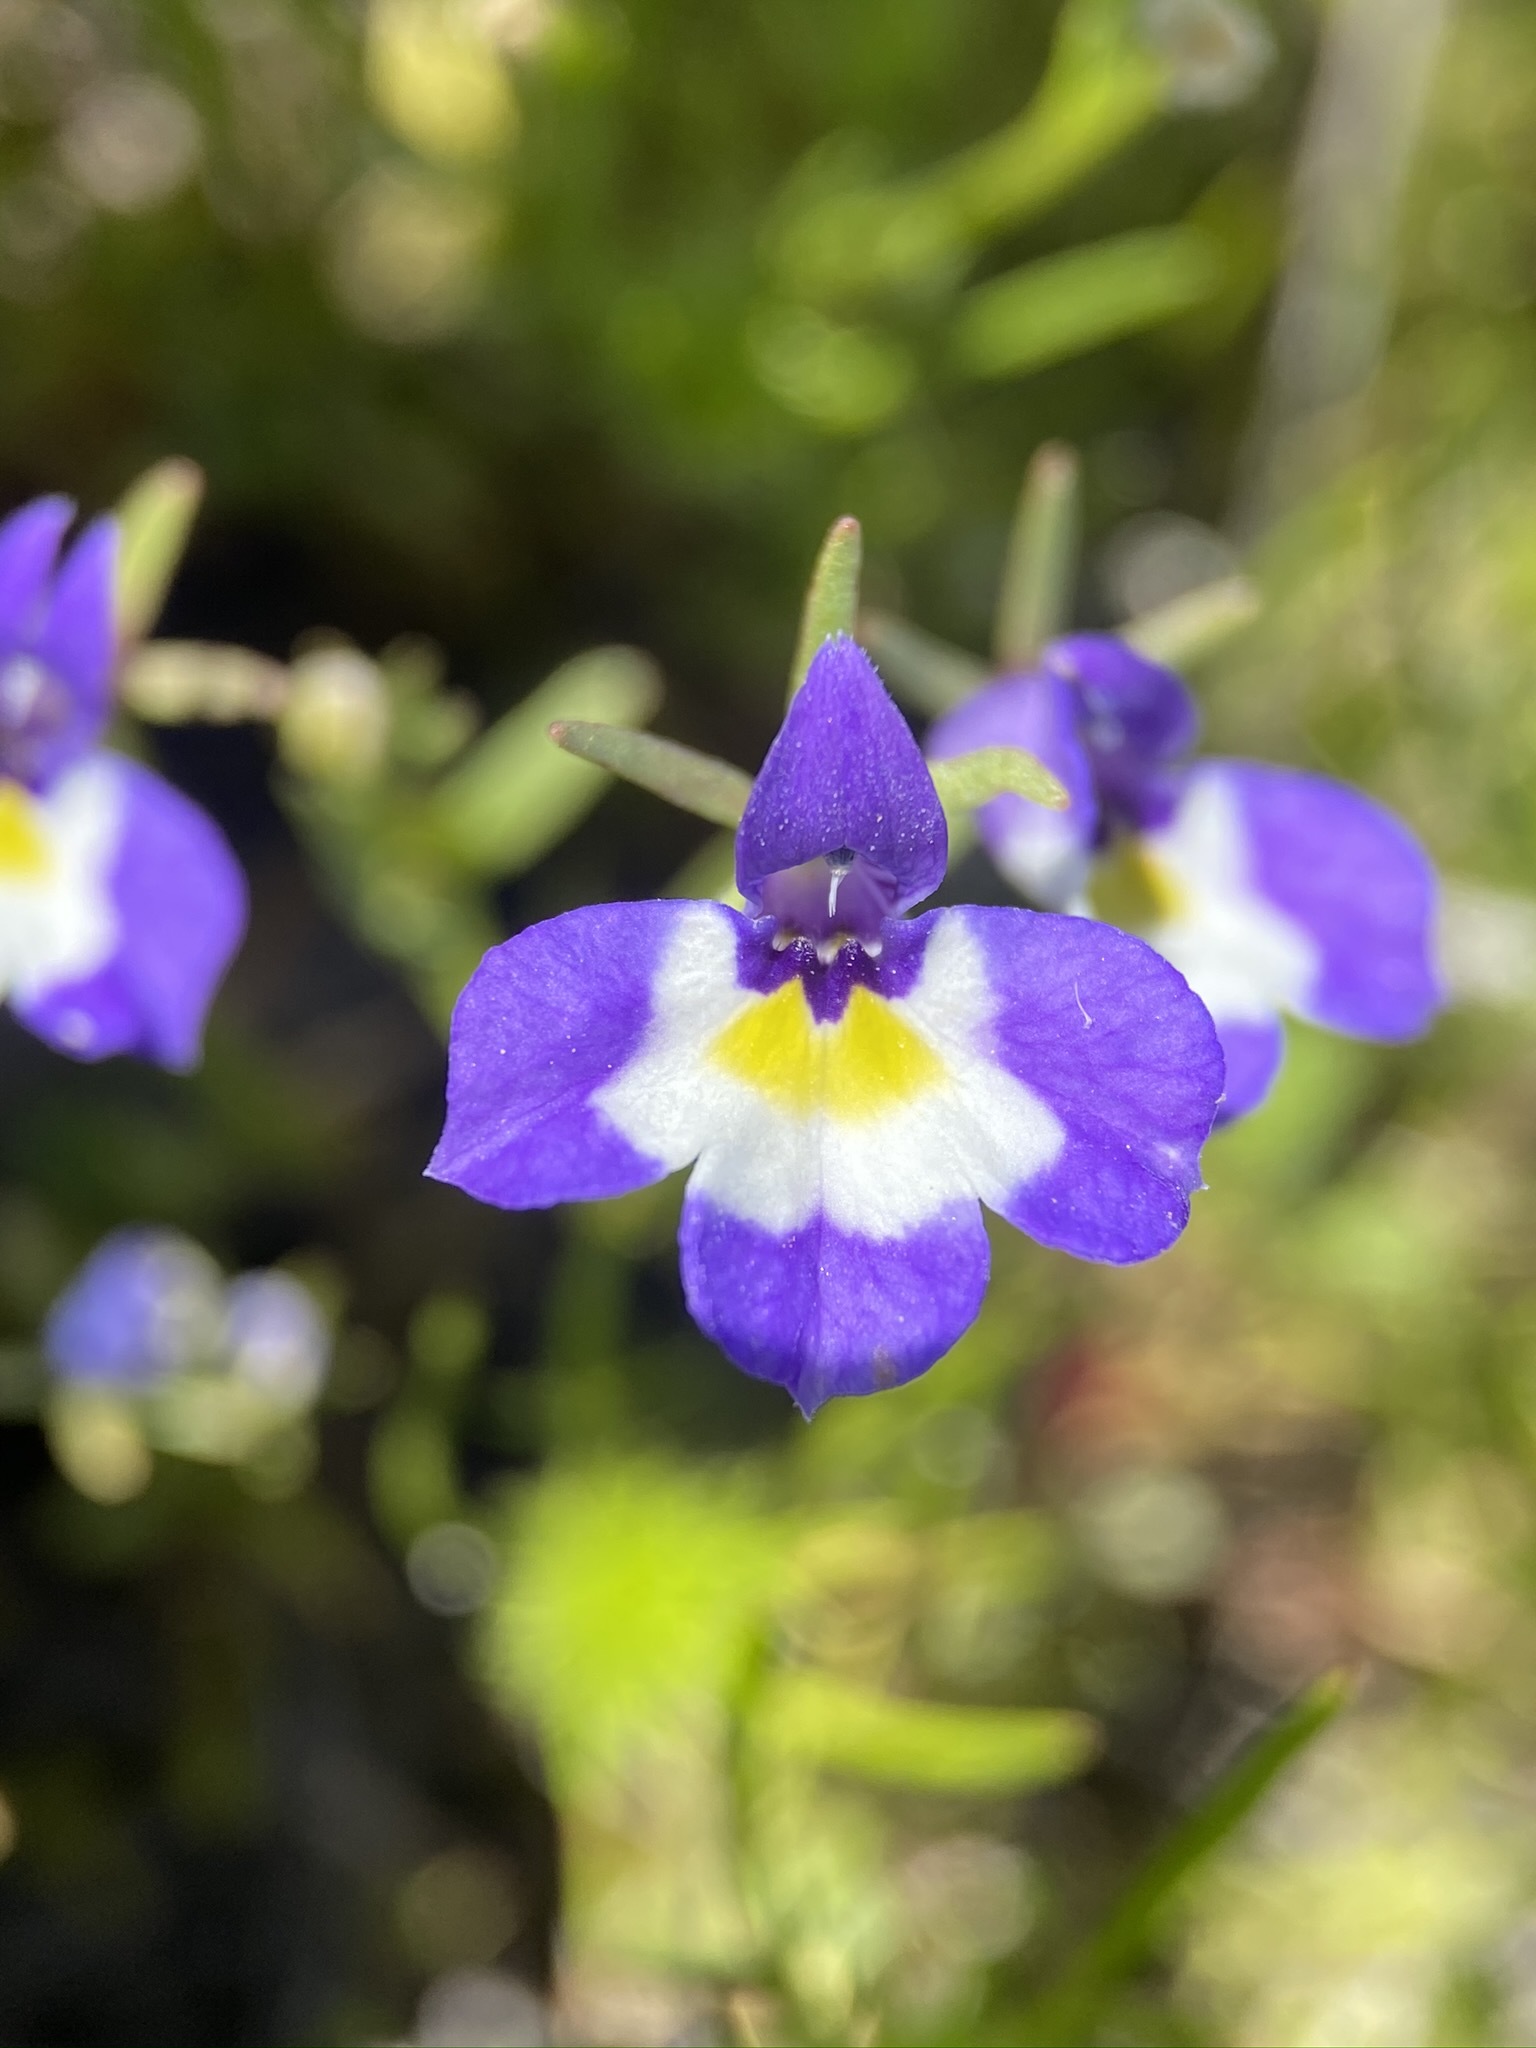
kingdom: Plantae
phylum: Tracheophyta
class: Magnoliopsida
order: Asterales
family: Campanulaceae
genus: Downingia
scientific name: Downingia bicornuta
